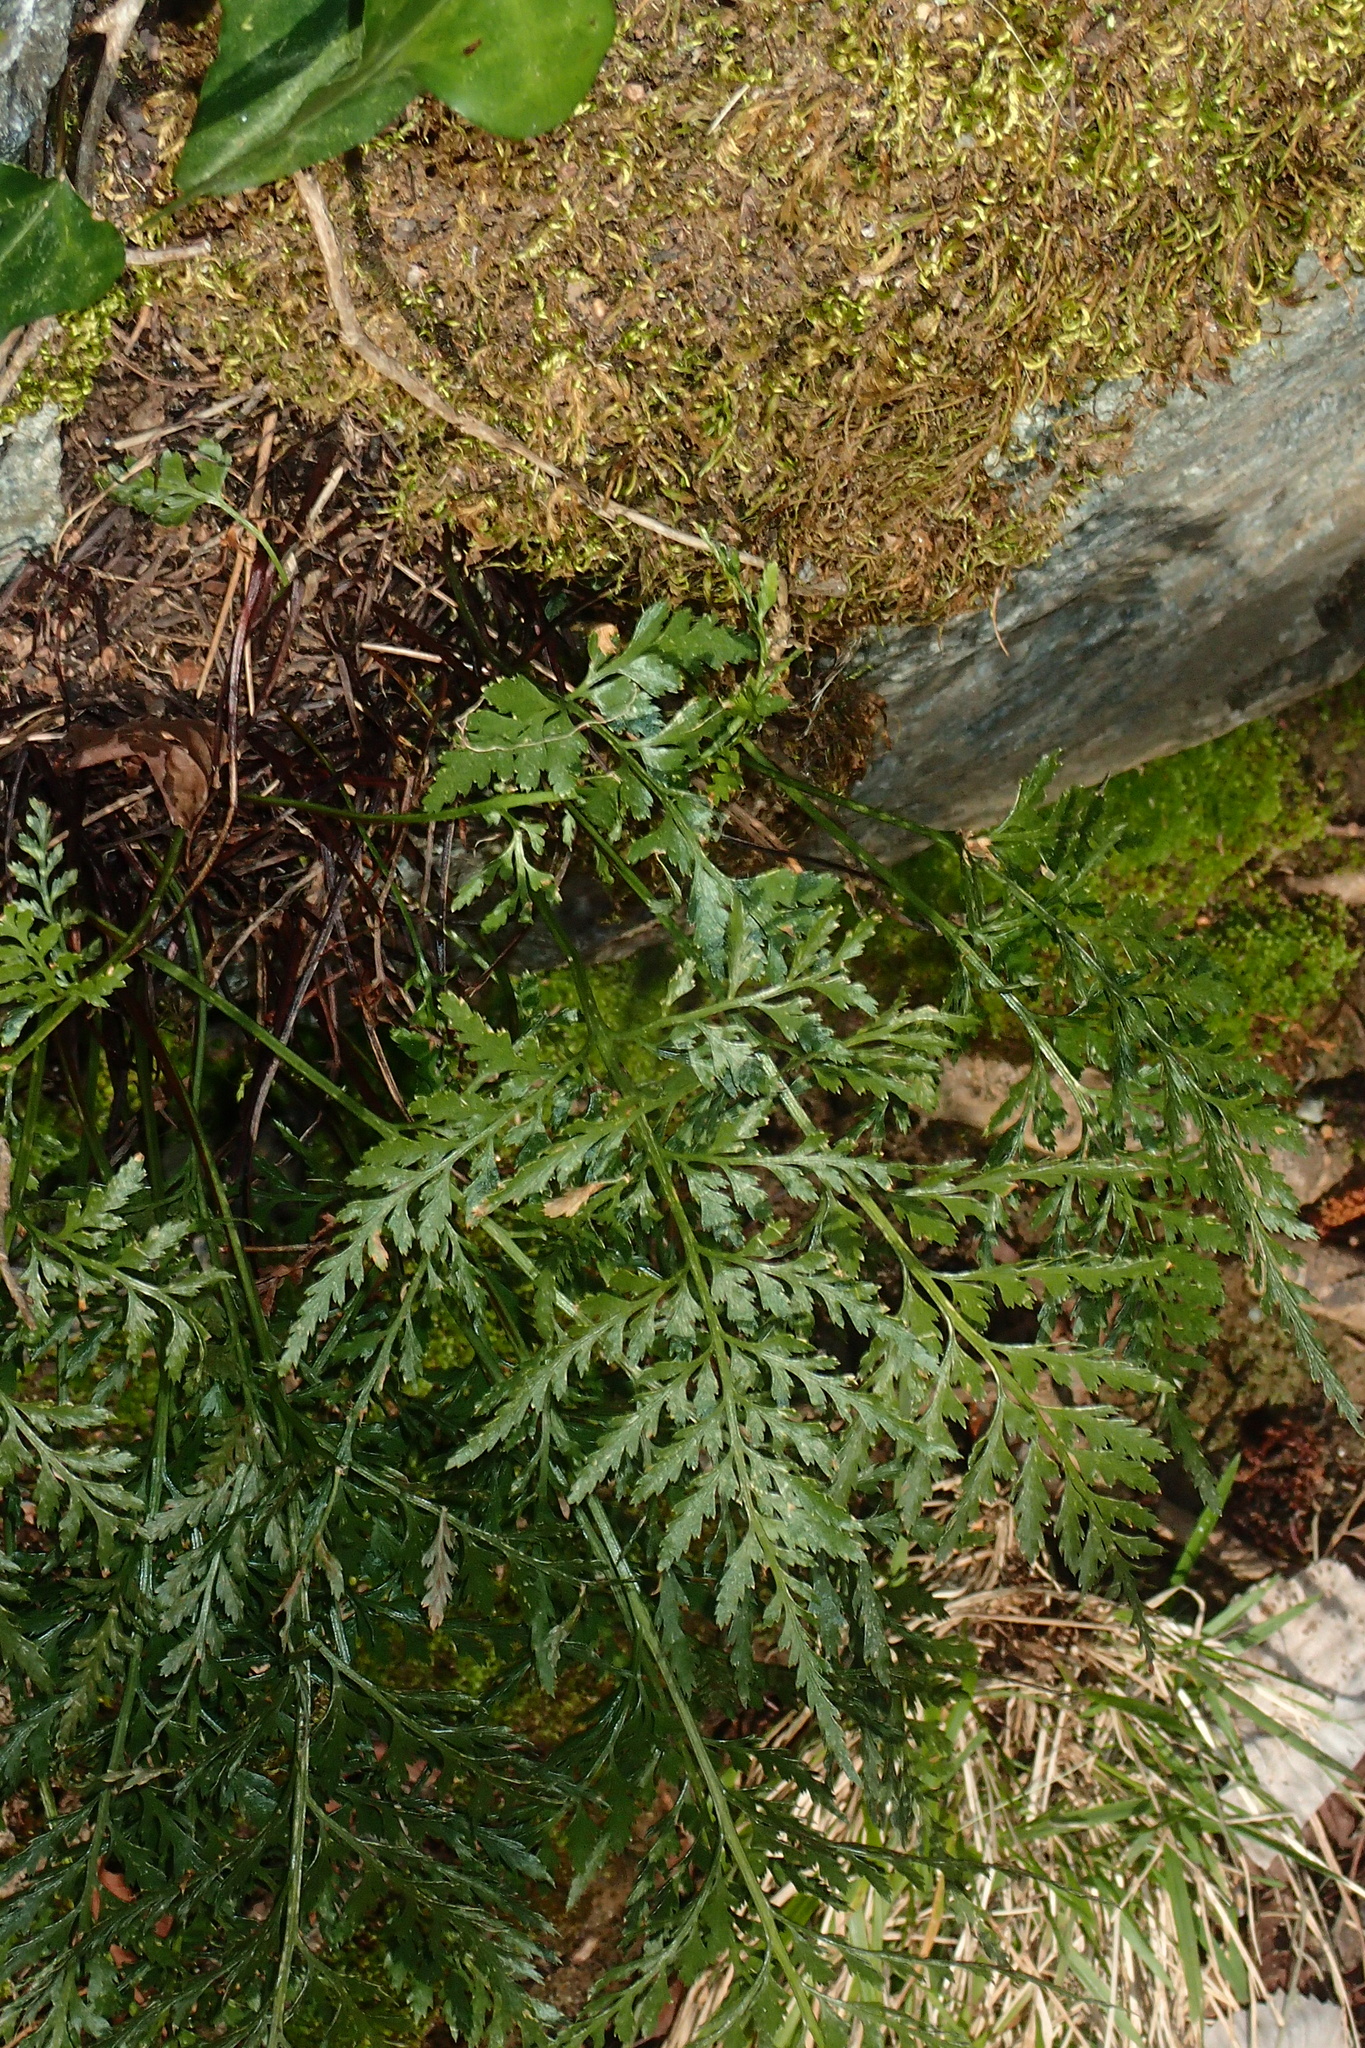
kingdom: Plantae
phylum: Tracheophyta
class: Polypodiopsida
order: Polypodiales
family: Aspleniaceae
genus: Asplenium
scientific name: Asplenium onopteris
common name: Irish spleenwort
